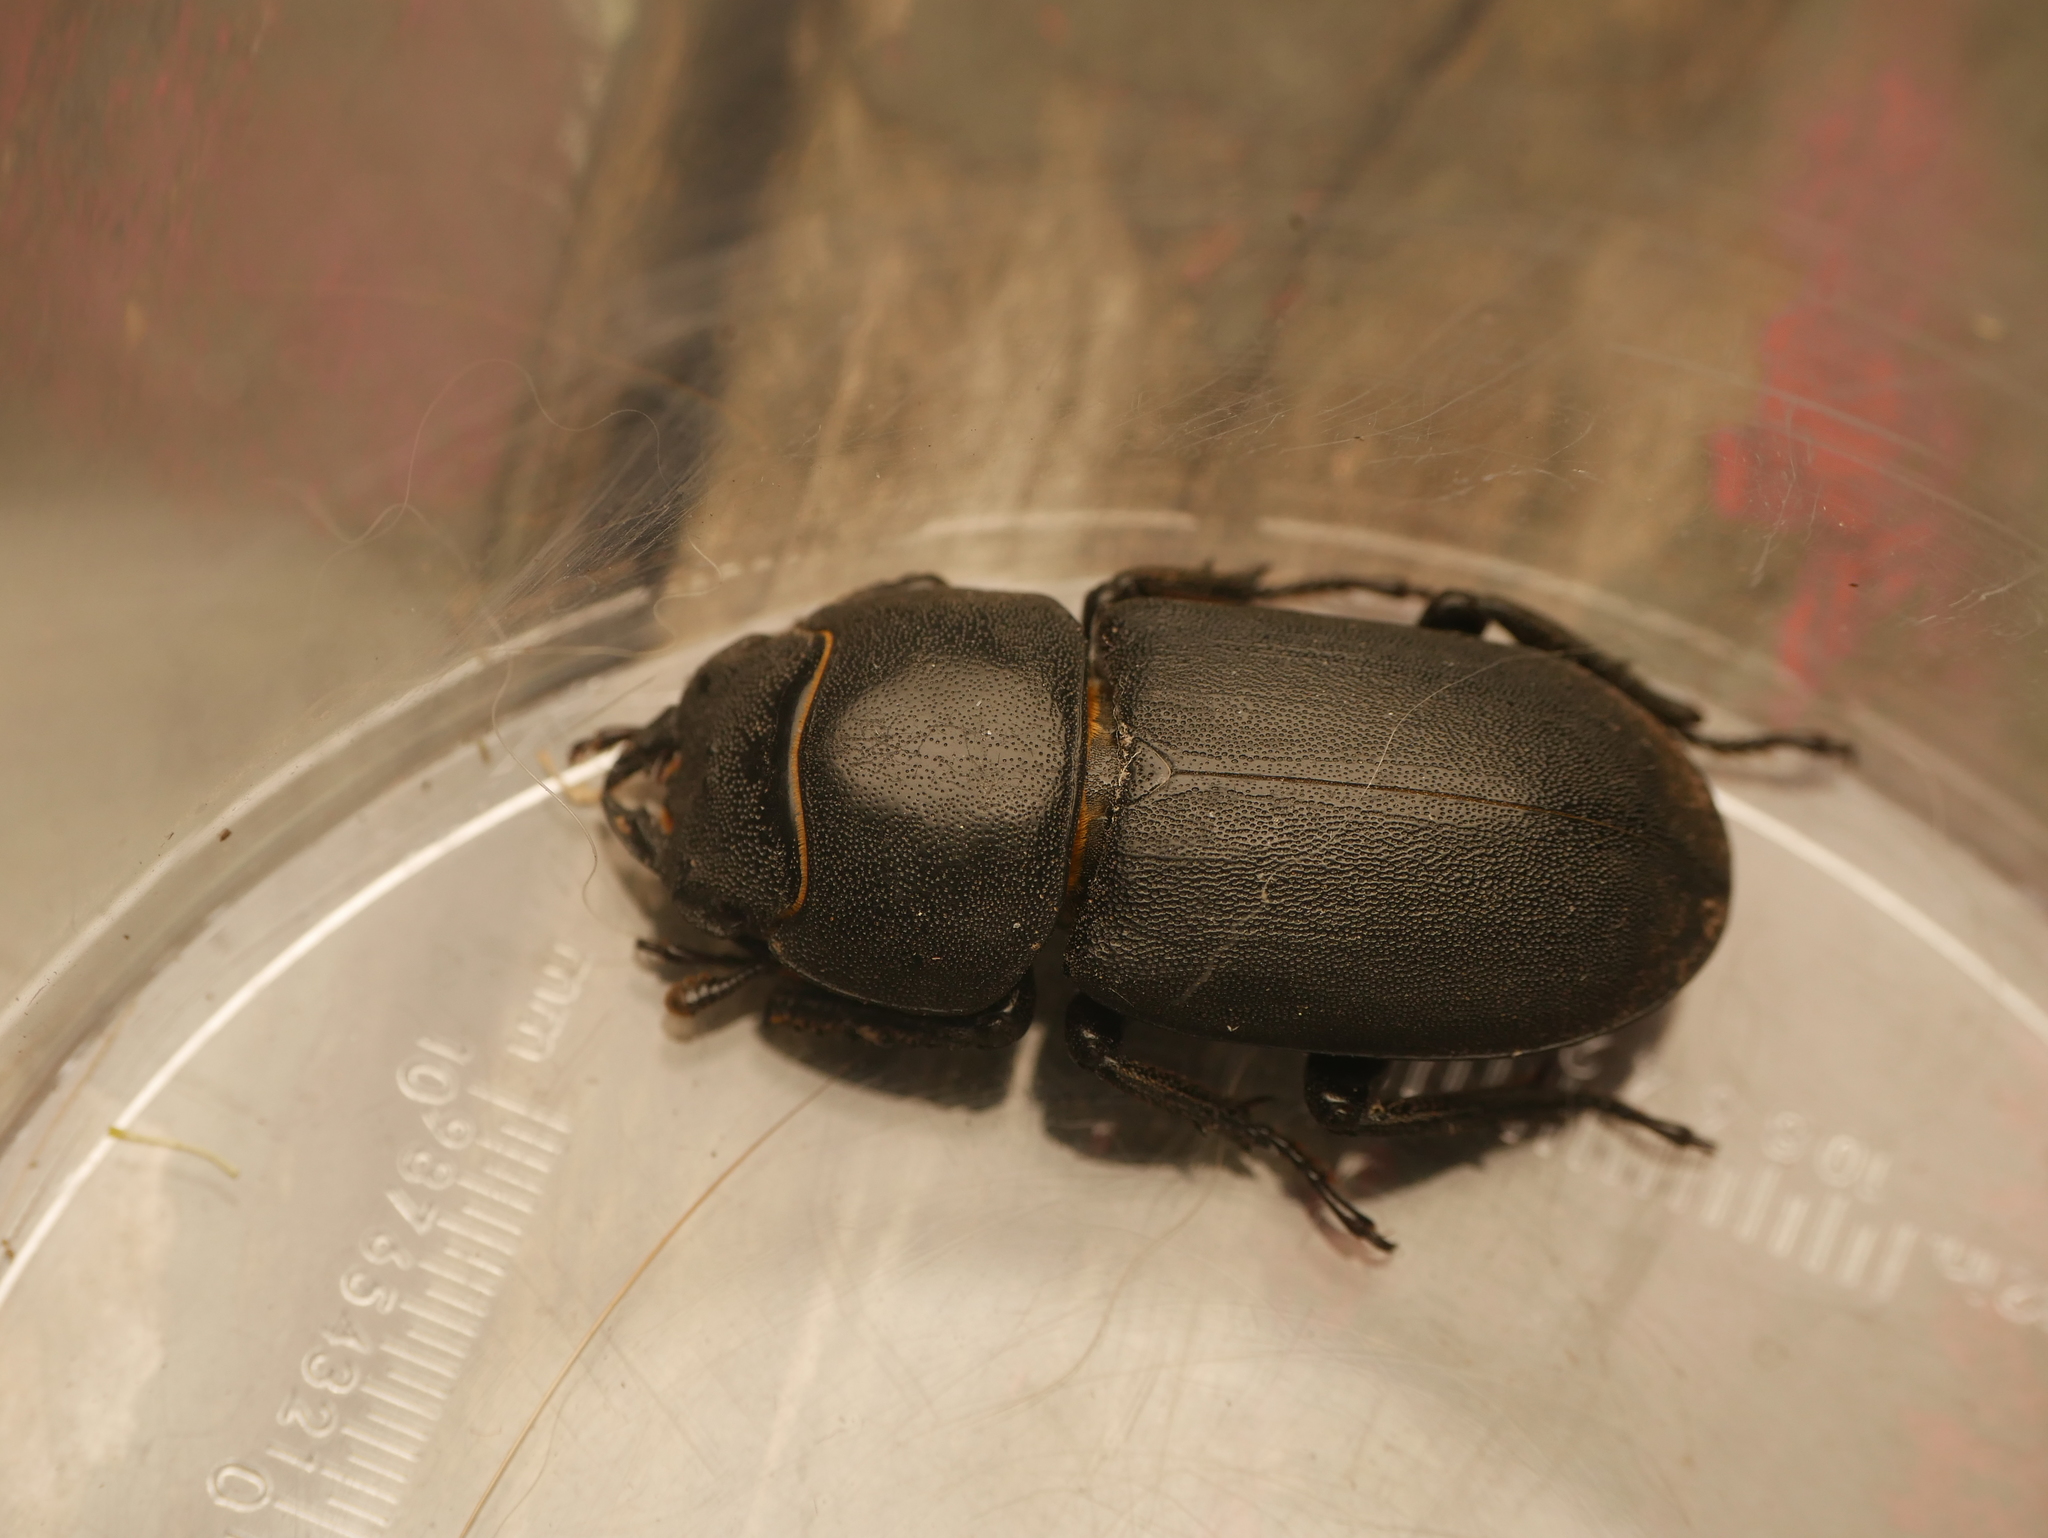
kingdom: Animalia
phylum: Arthropoda
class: Insecta
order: Coleoptera
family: Lucanidae
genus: Dorcus
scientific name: Dorcus parallelipipedus
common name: Lesser stag beetle
